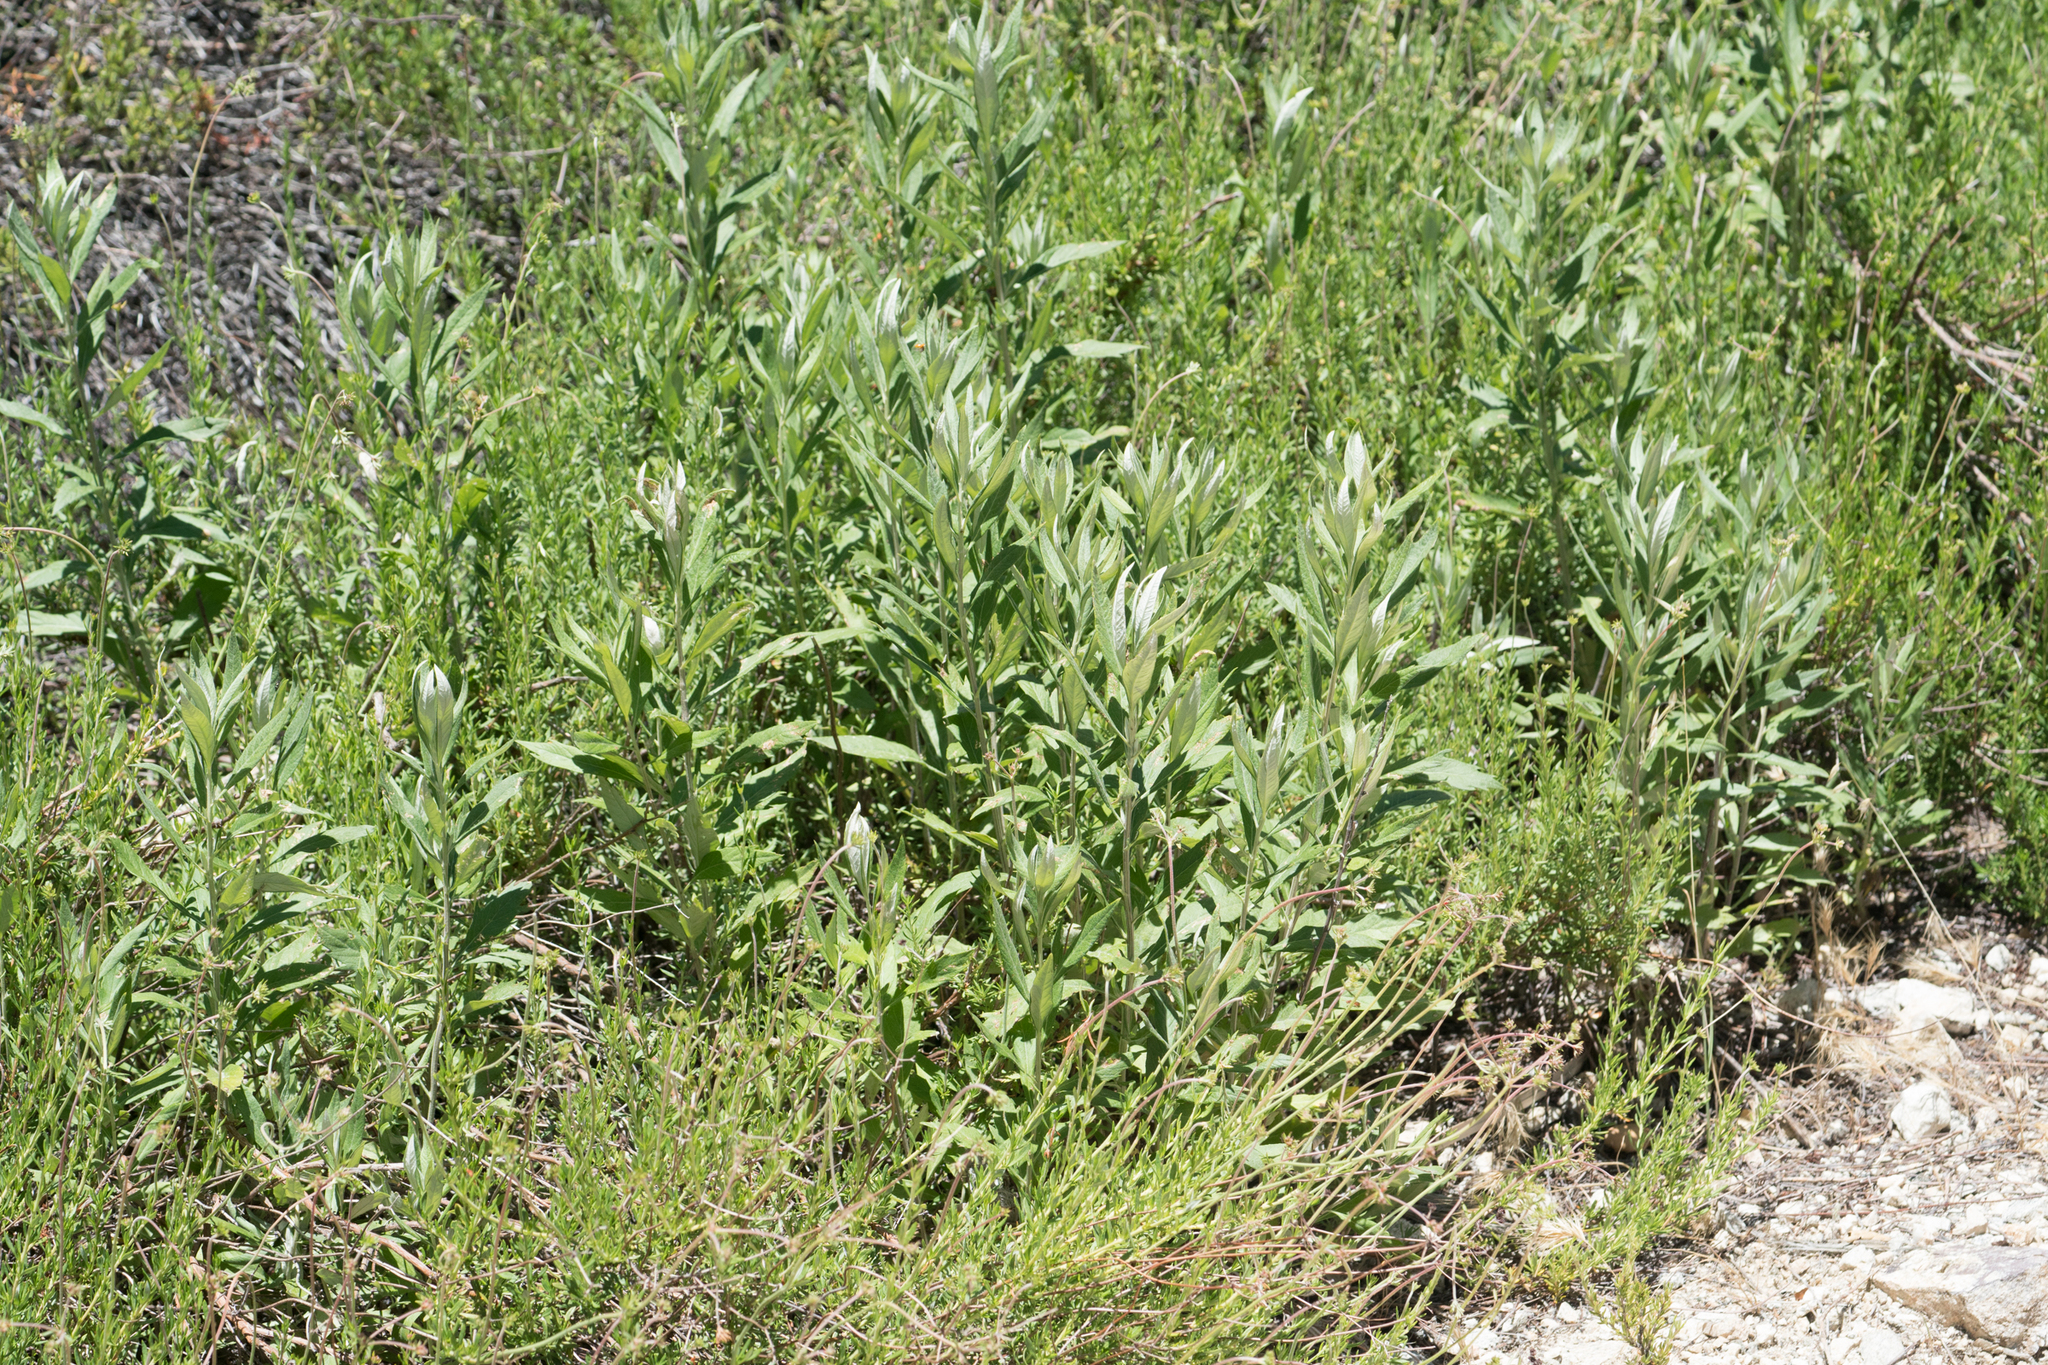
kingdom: Plantae
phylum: Tracheophyta
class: Magnoliopsida
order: Asterales
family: Asteraceae
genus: Artemisia
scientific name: Artemisia douglasiana
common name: Northwest mugwort
